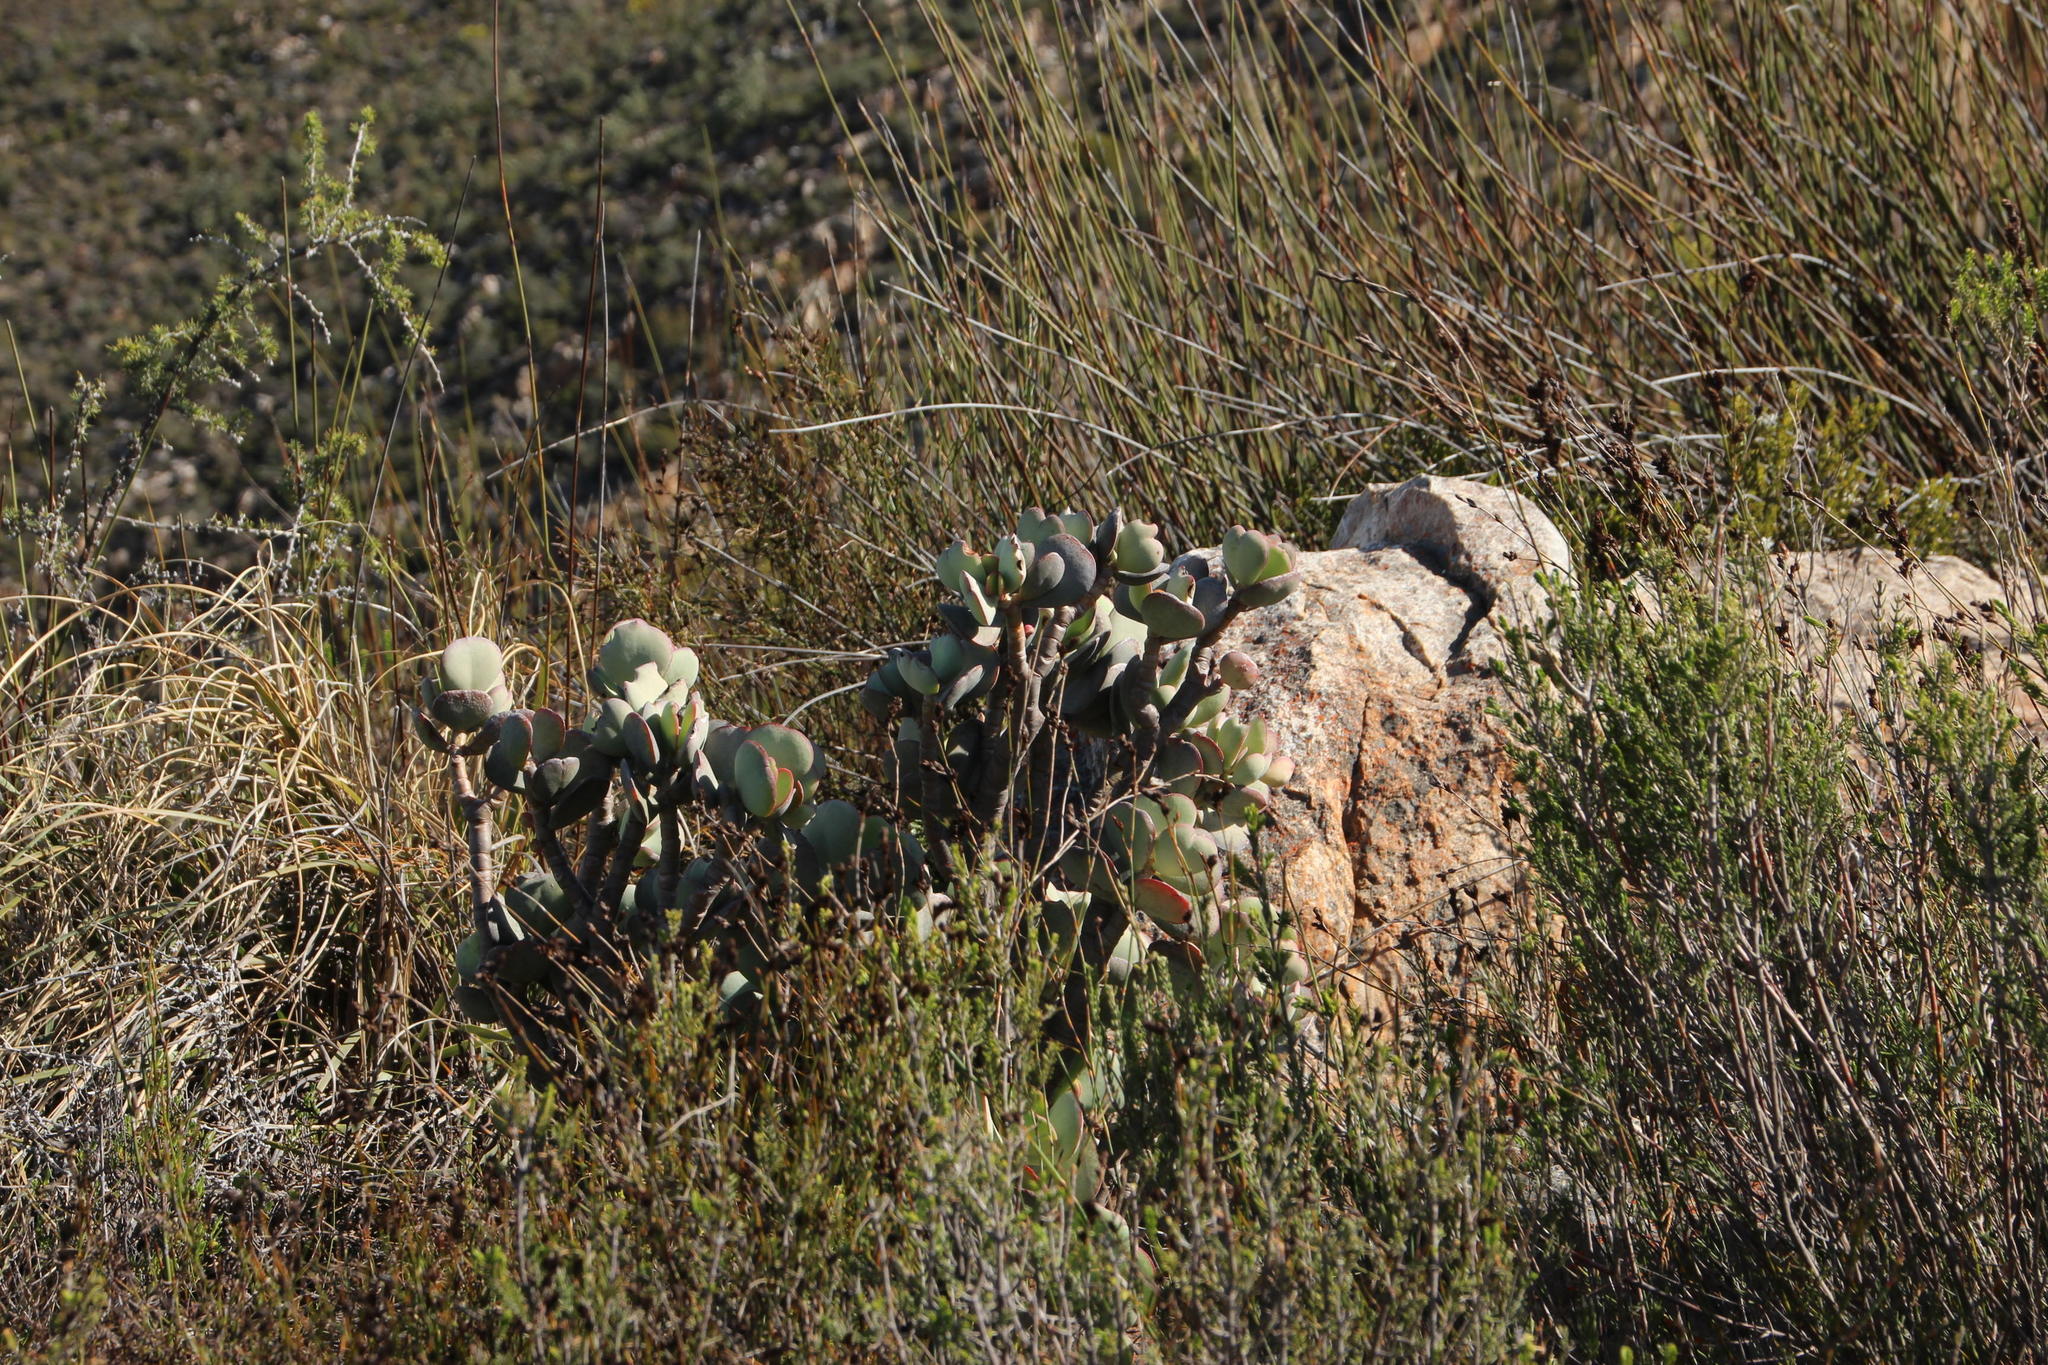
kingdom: Plantae
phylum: Tracheophyta
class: Magnoliopsida
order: Saxifragales
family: Crassulaceae
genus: Crassula
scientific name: Crassula arborescens
